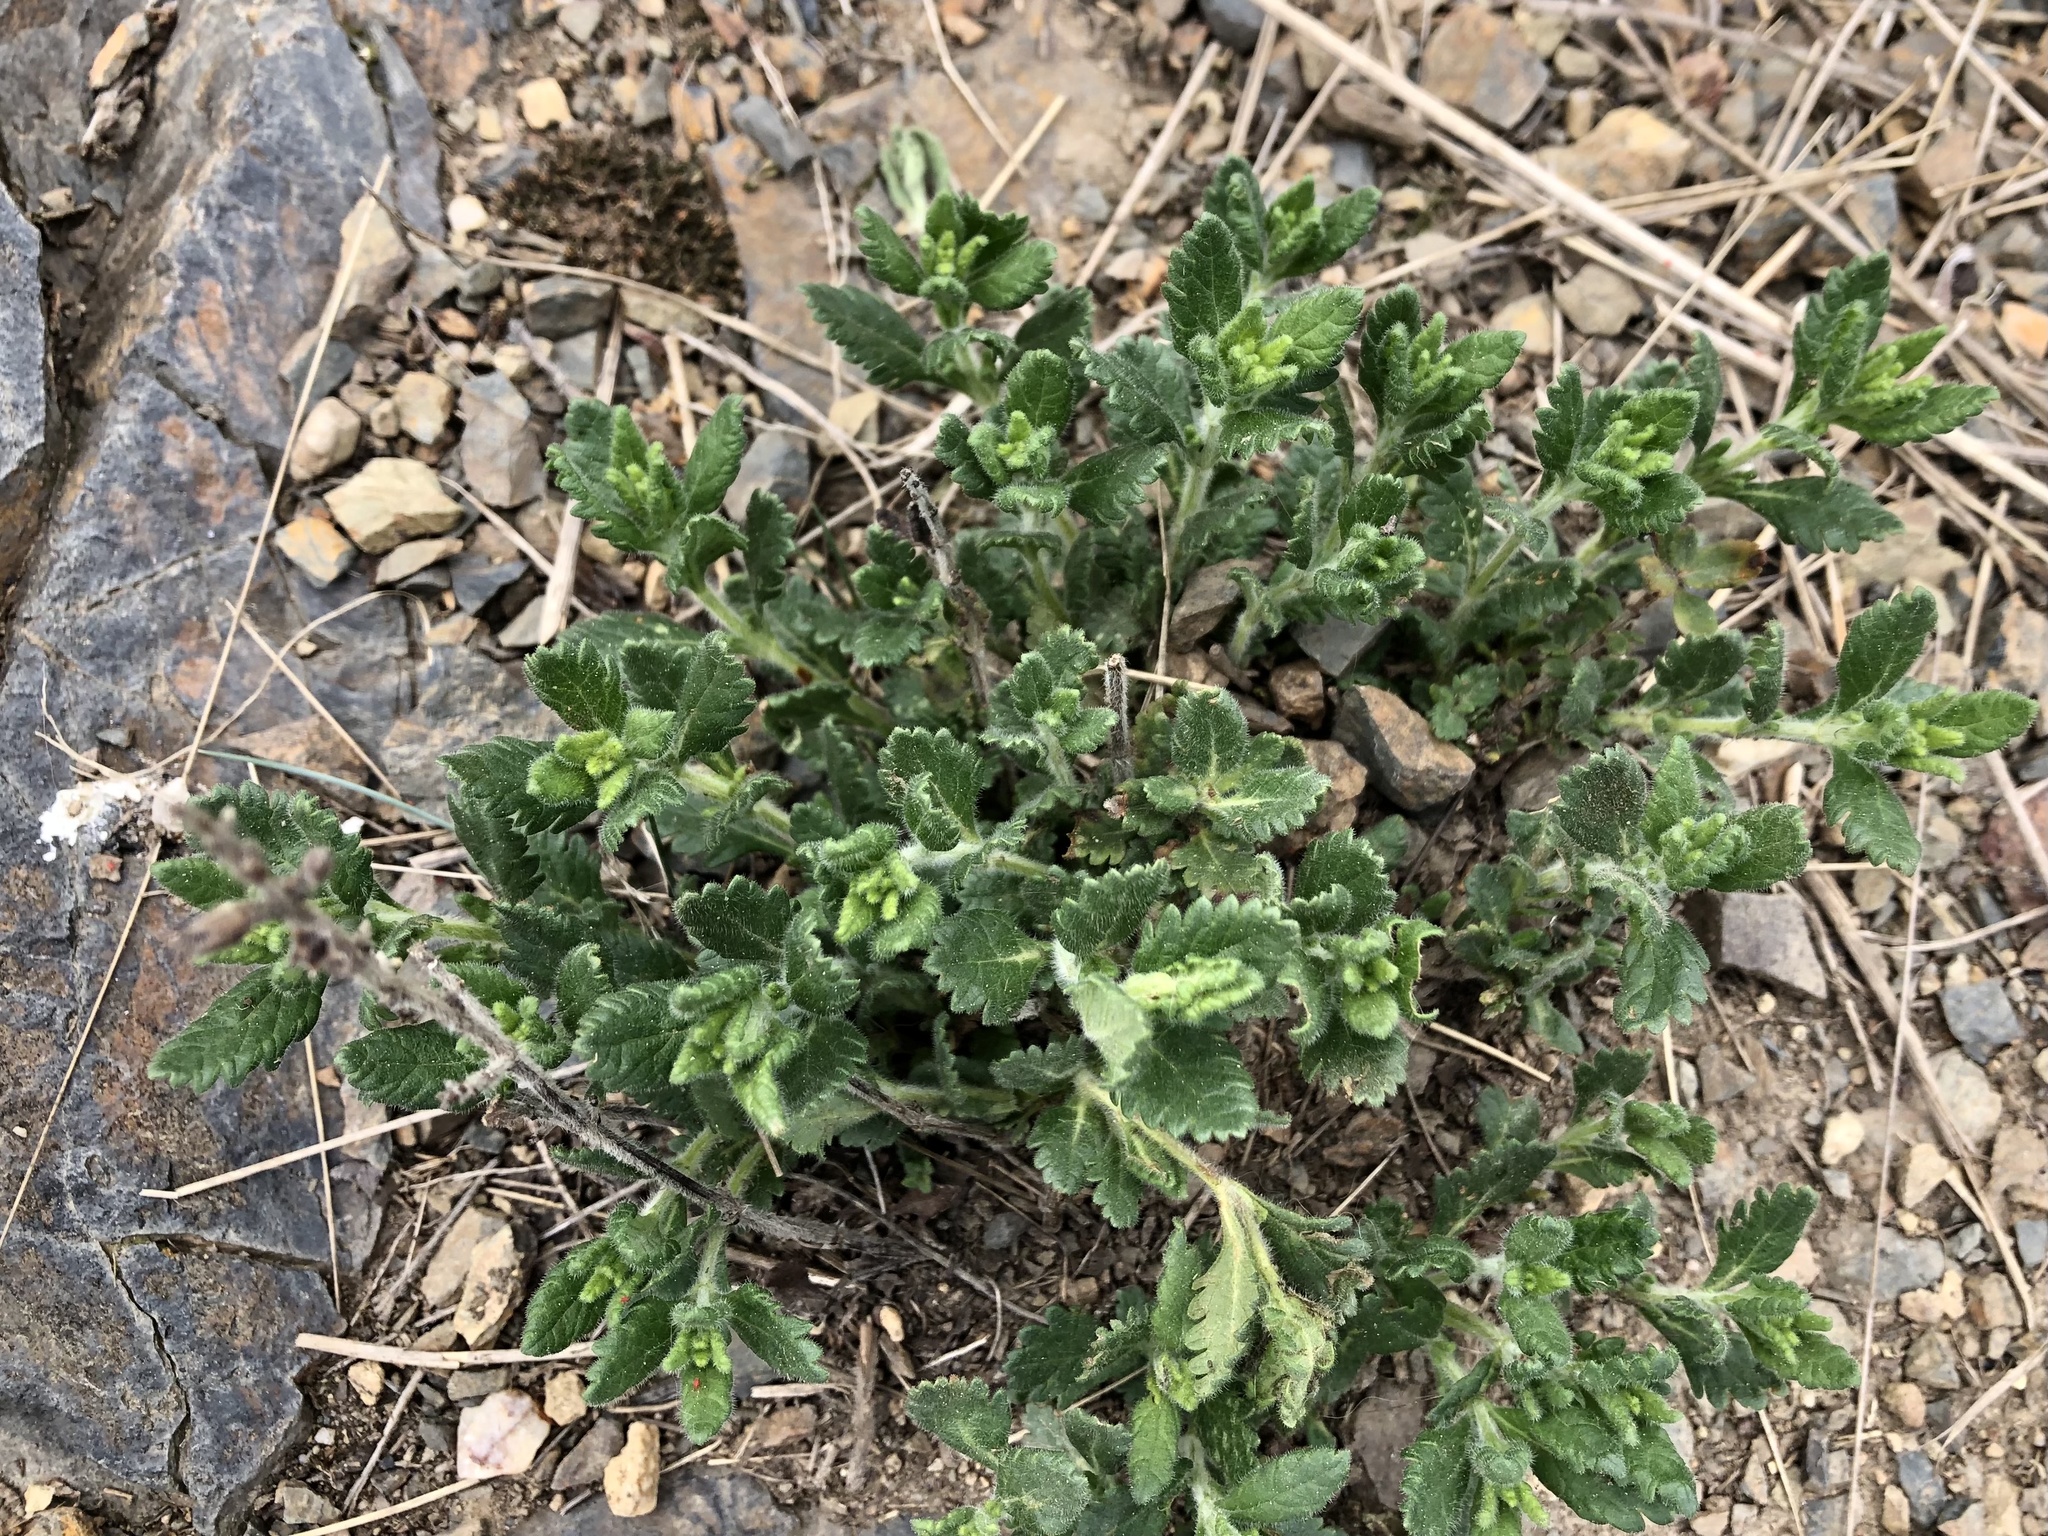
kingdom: Plantae
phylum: Tracheophyta
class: Magnoliopsida
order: Lamiales
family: Lamiaceae
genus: Teucrium
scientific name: Teucrium chamaedrys
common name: Wall germander
